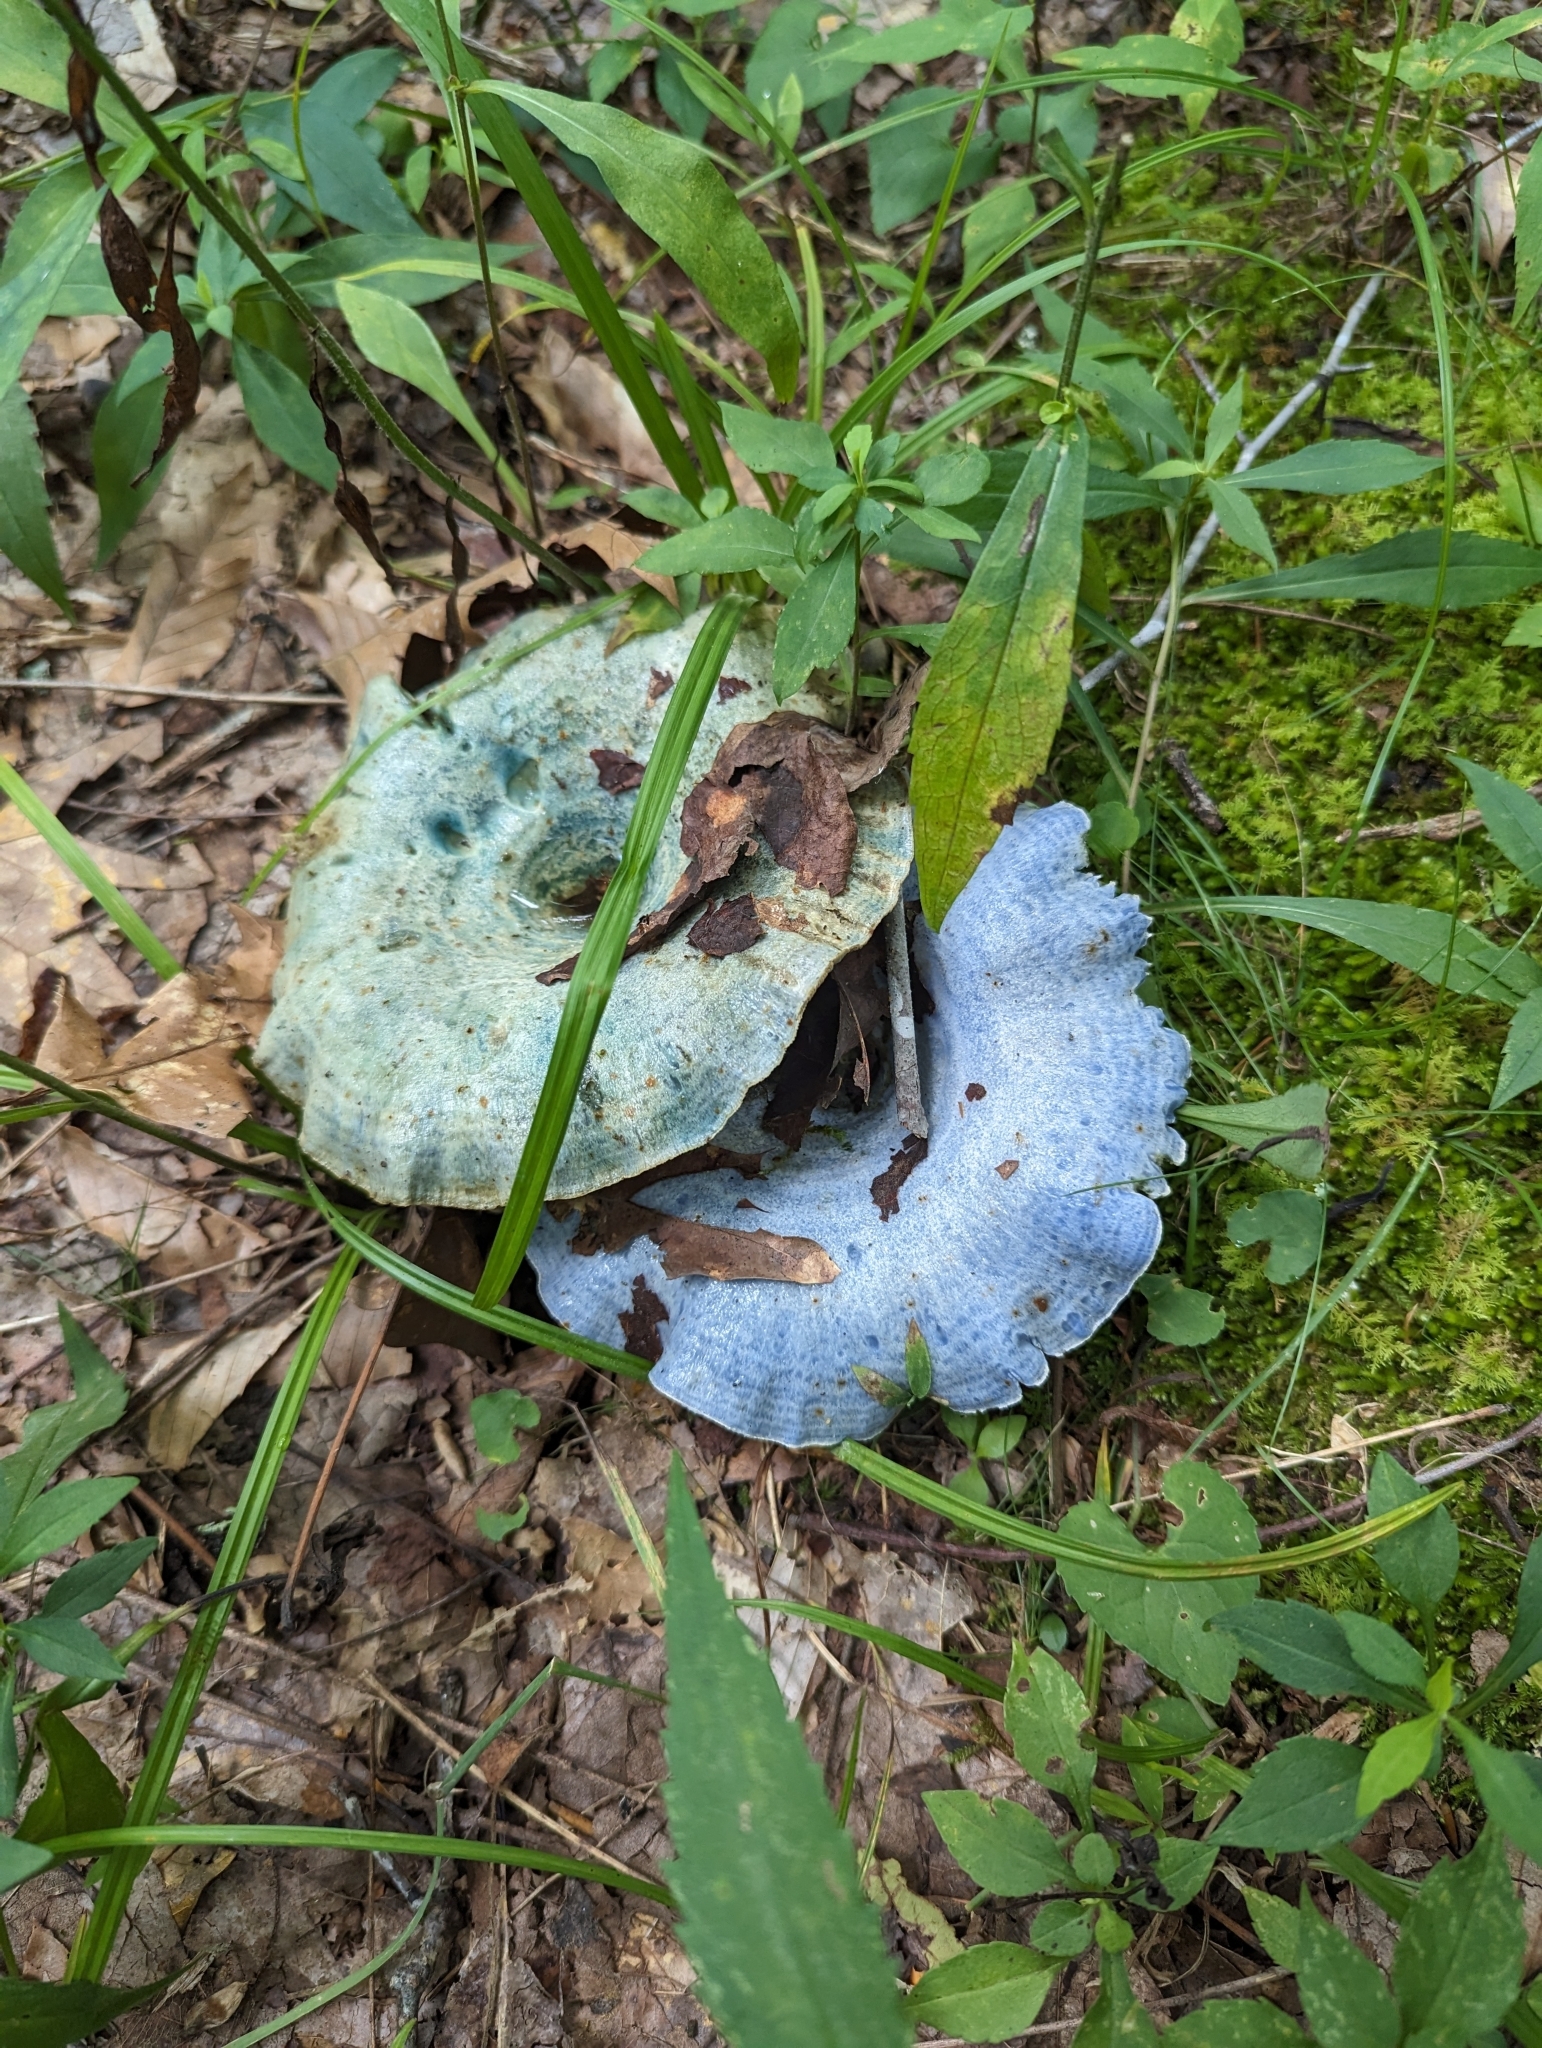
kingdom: Fungi
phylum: Basidiomycota
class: Agaricomycetes
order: Russulales
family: Russulaceae
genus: Lactarius
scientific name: Lactarius indigo
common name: Indigo milk cap
